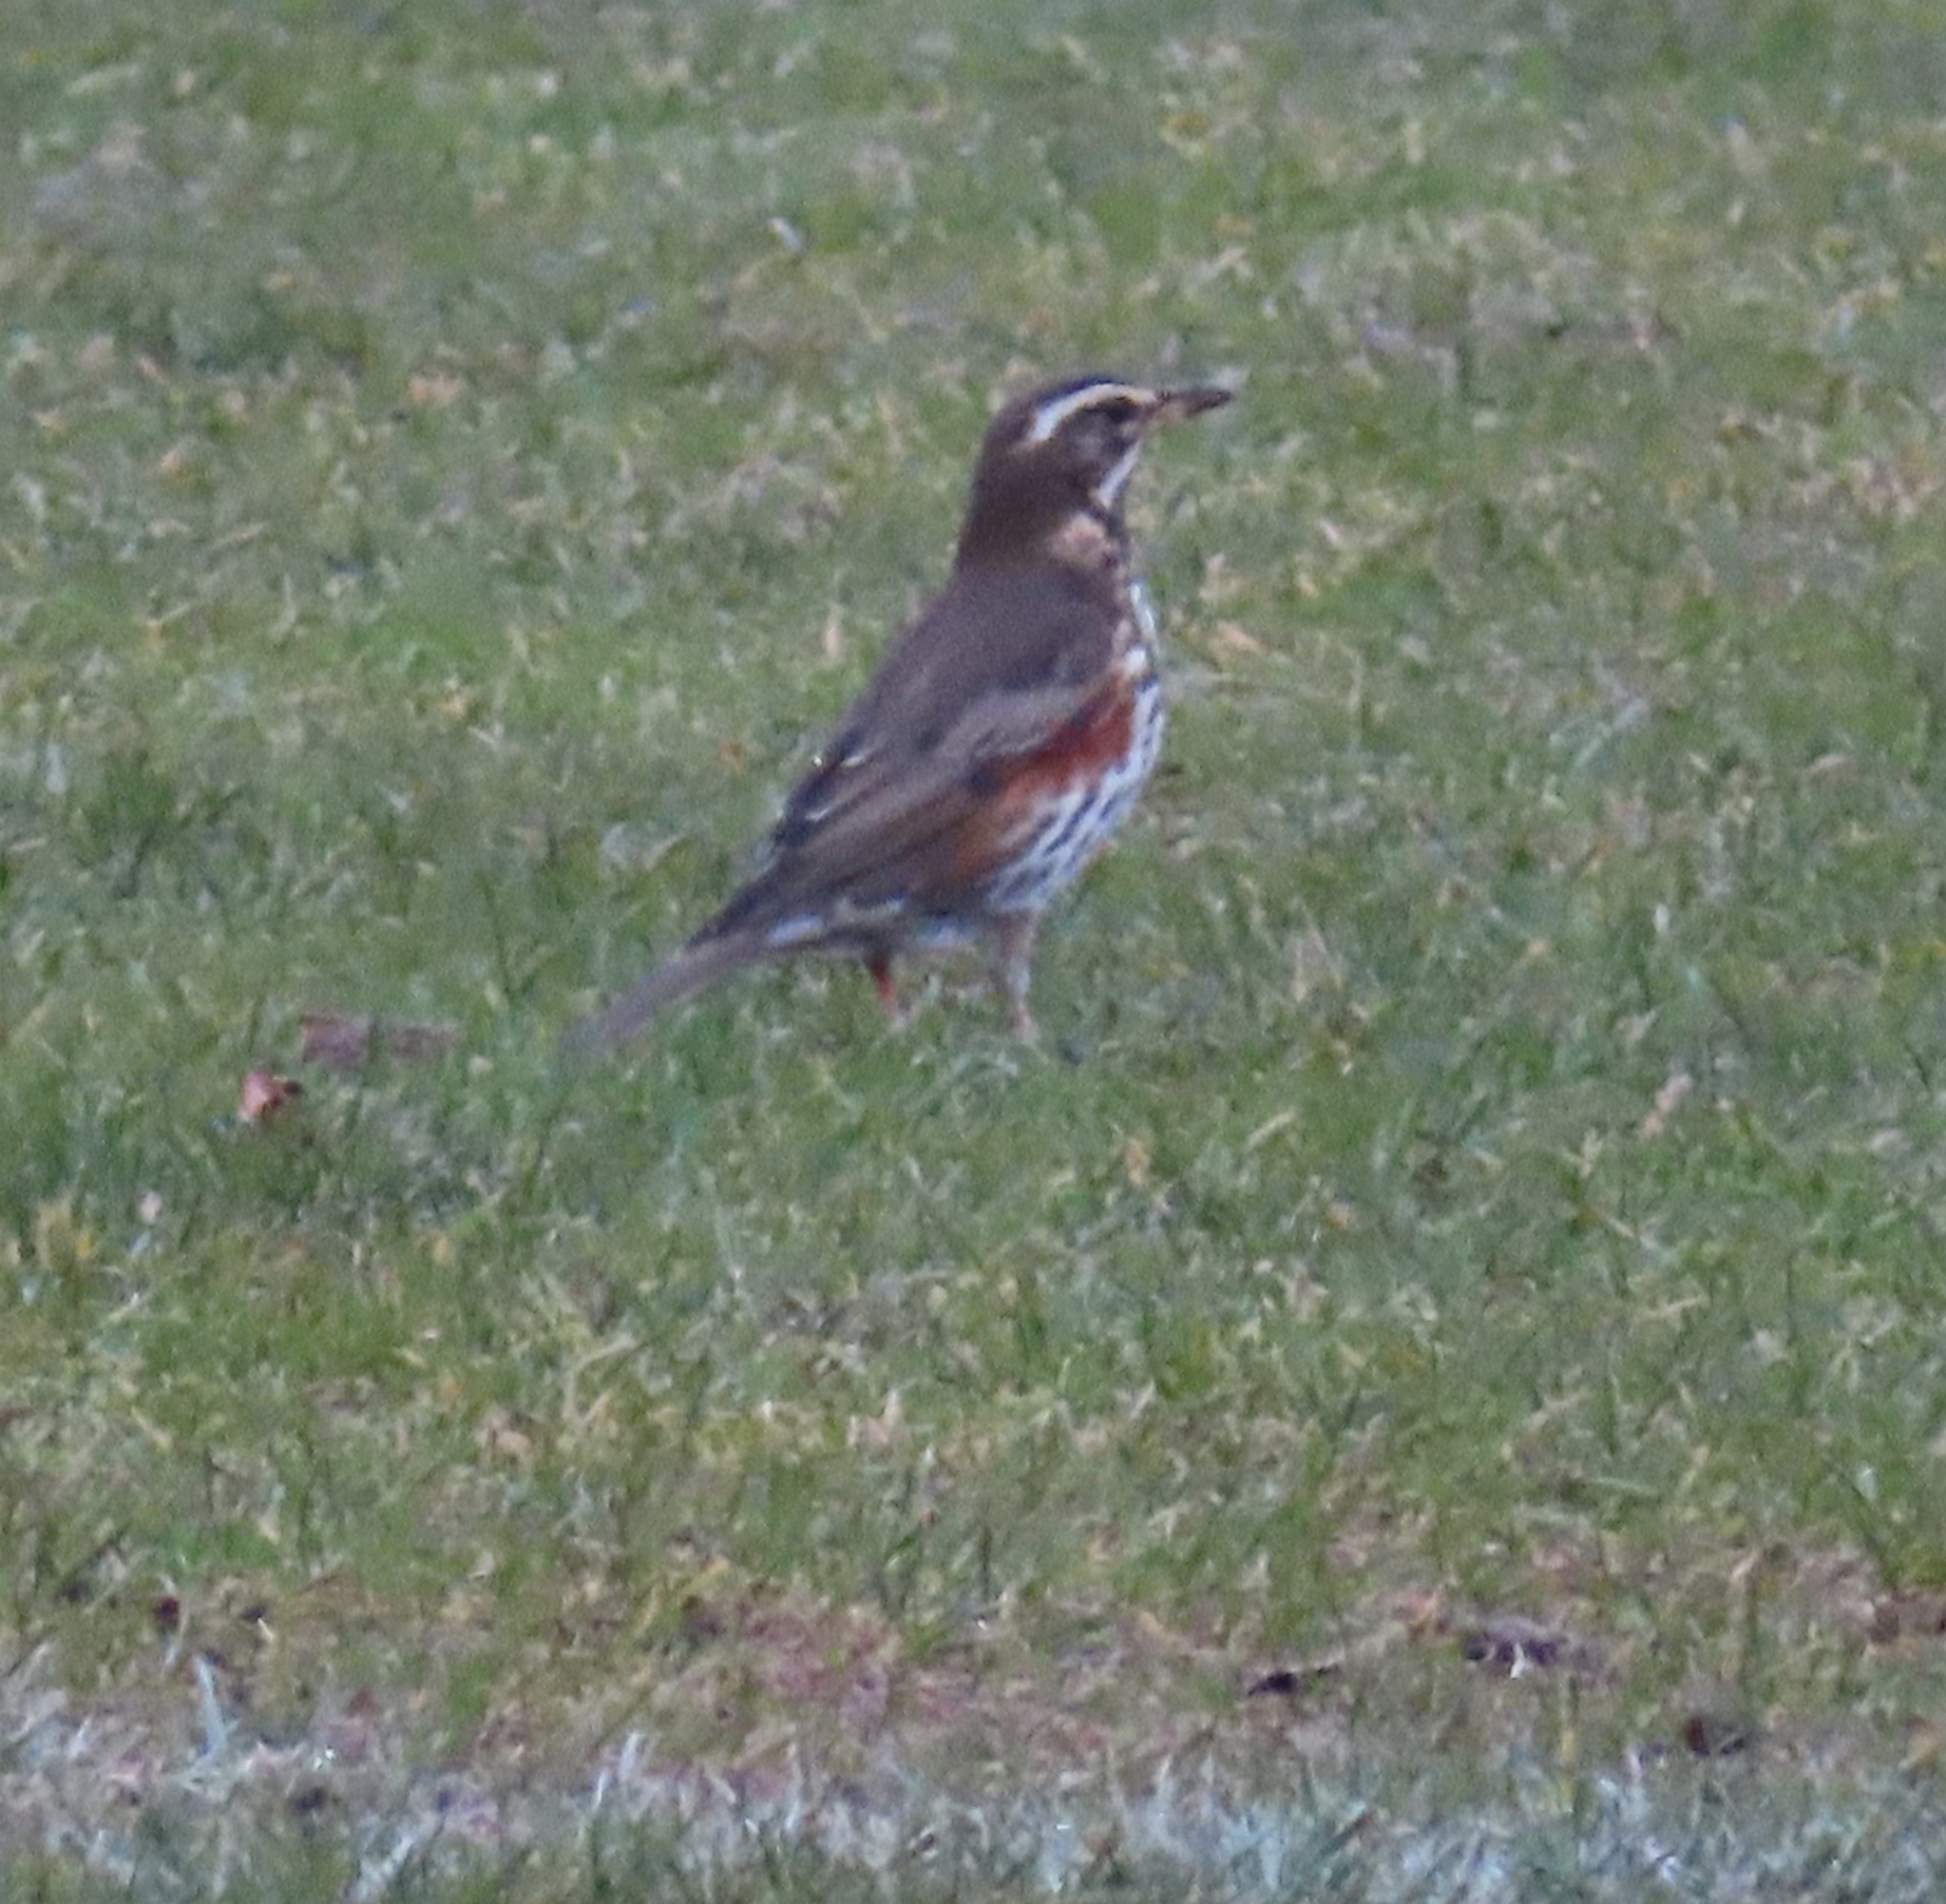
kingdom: Animalia
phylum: Chordata
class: Aves
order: Passeriformes
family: Turdidae
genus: Turdus
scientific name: Turdus iliacus
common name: Redwing
